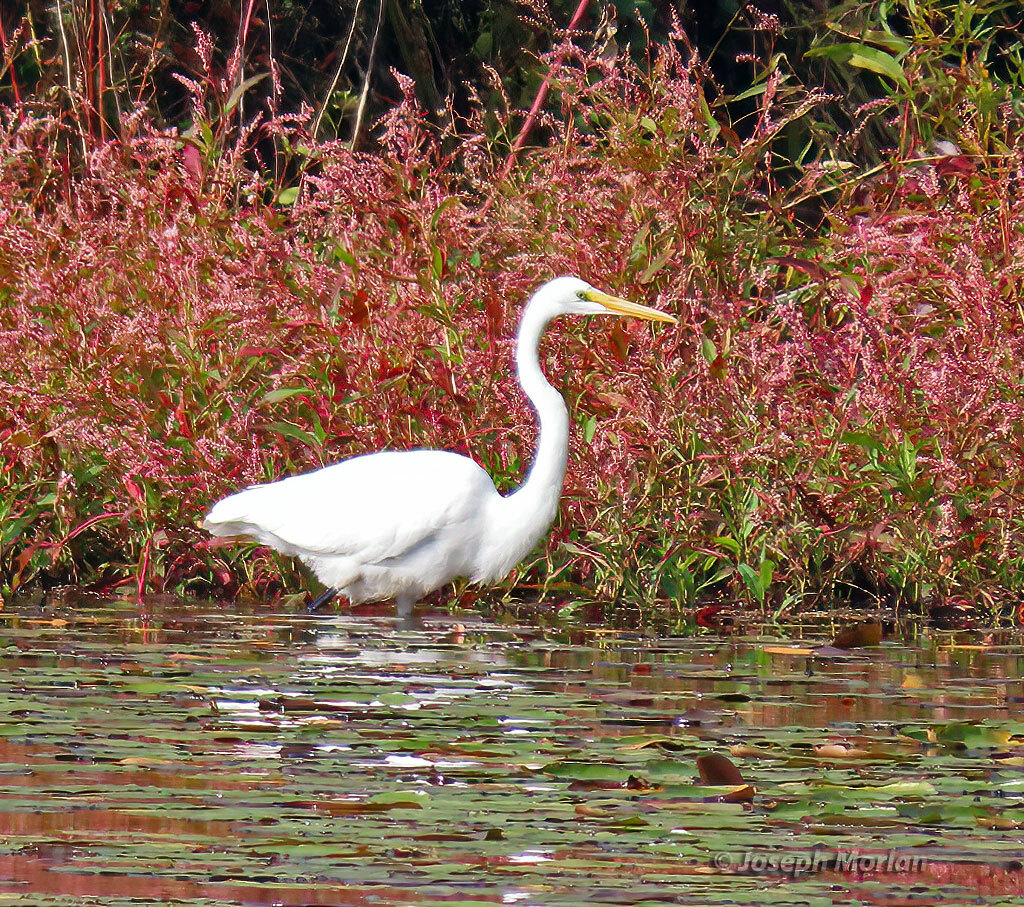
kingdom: Animalia
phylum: Chordata
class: Aves
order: Pelecaniformes
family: Ardeidae
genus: Ardea
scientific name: Ardea alba
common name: Great egret
